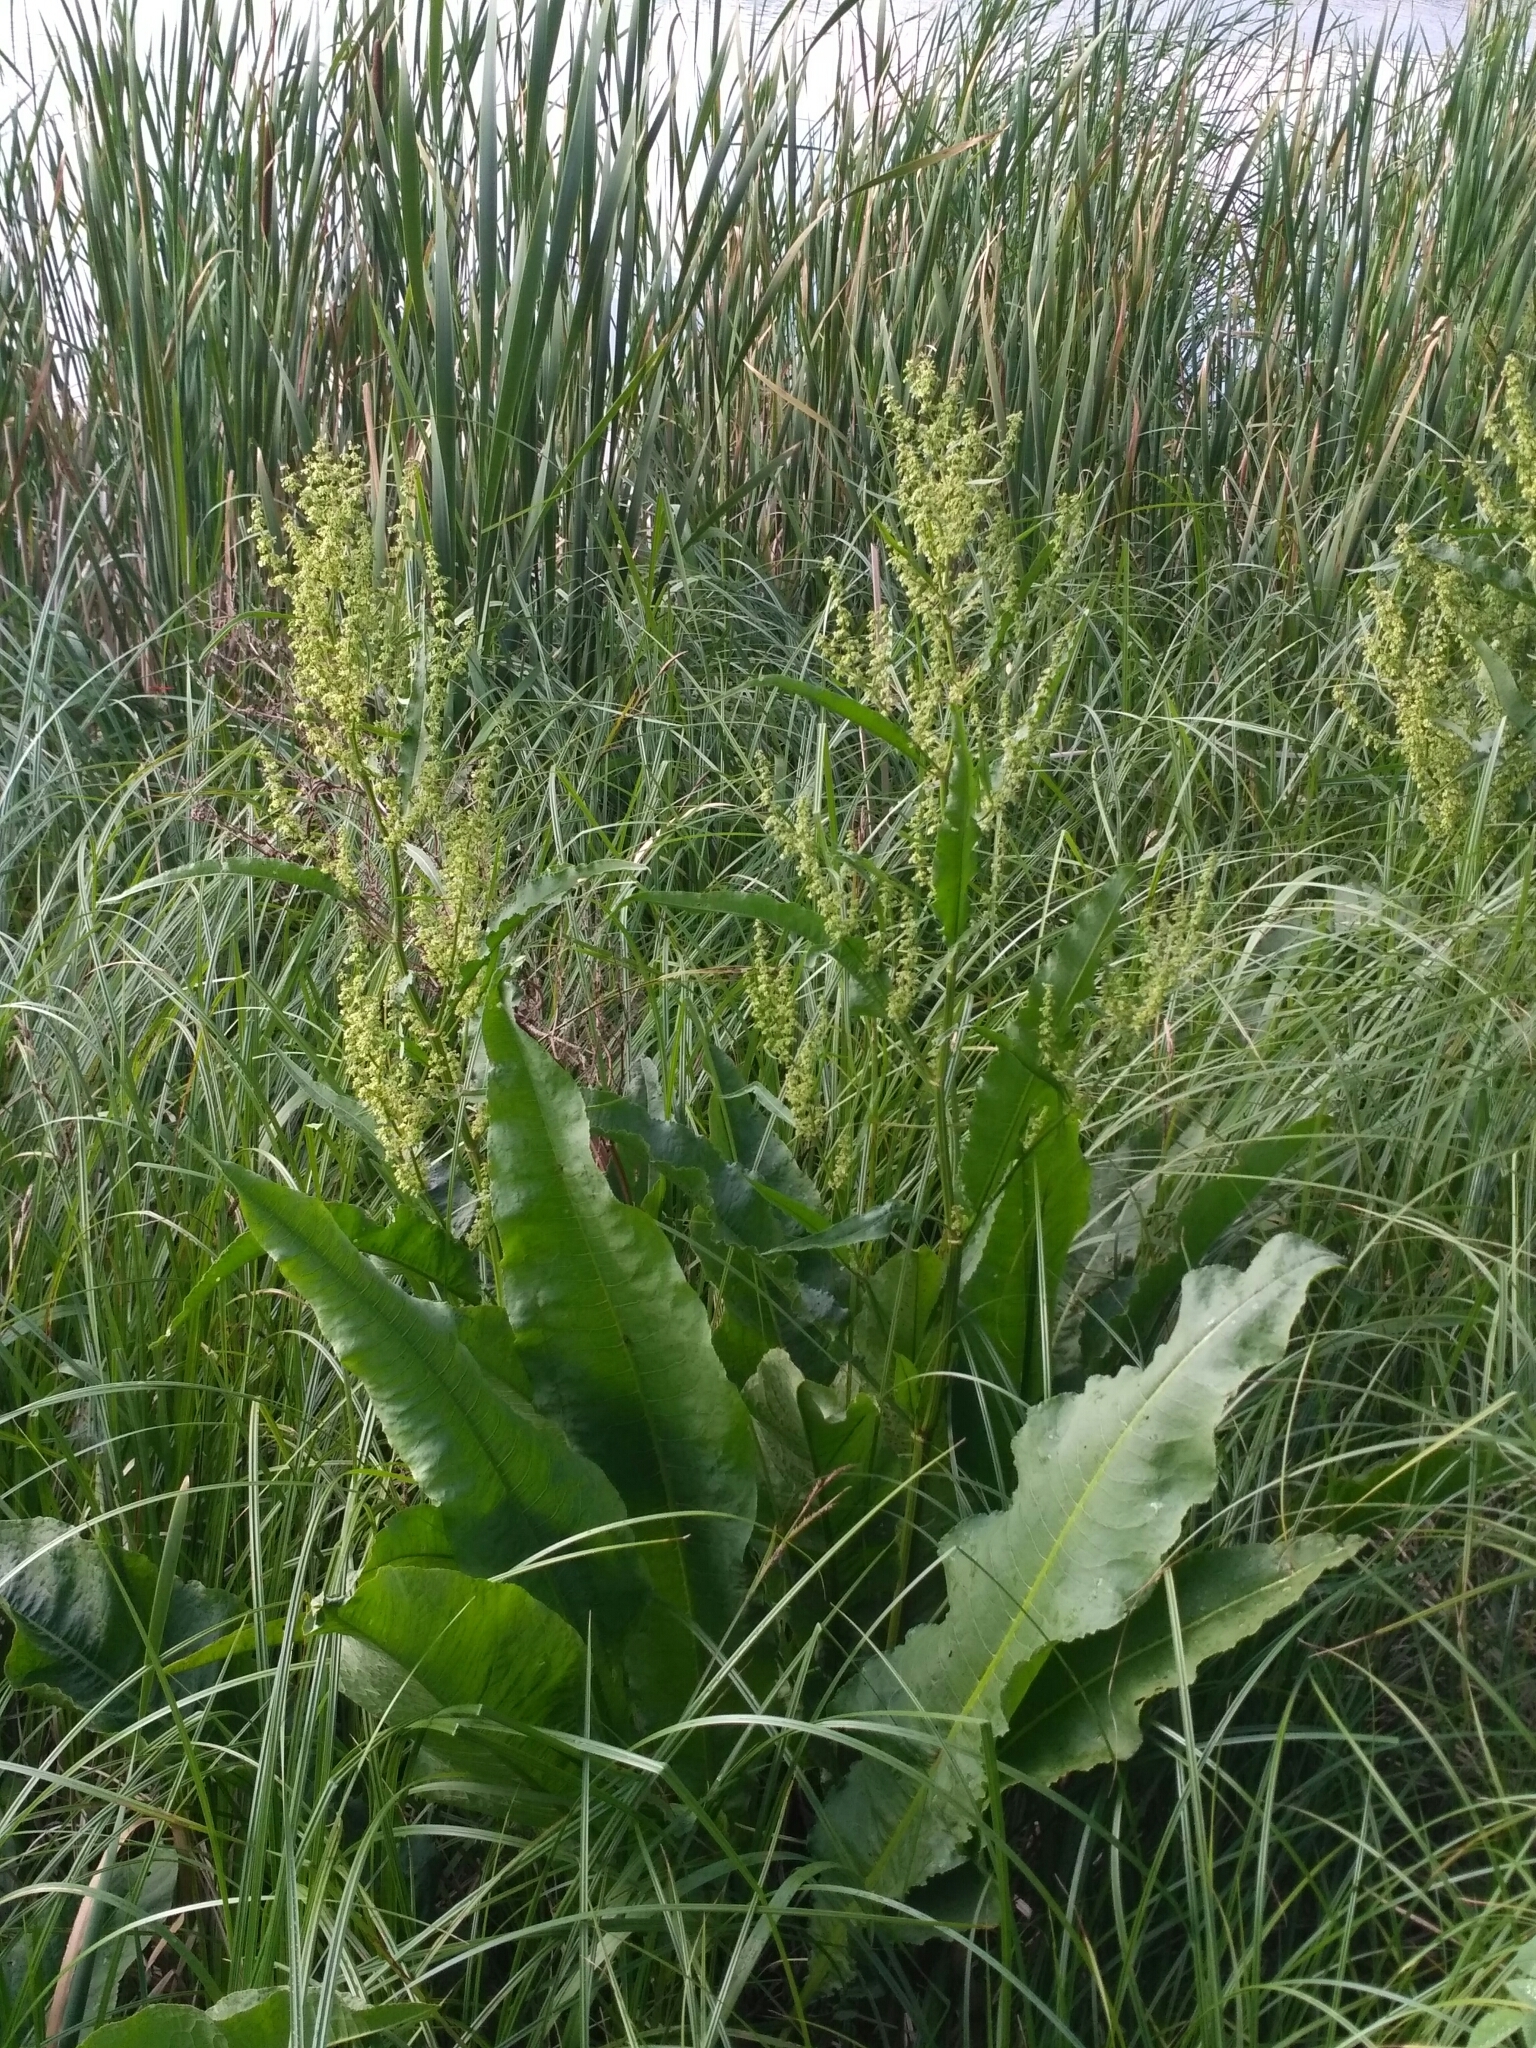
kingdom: Plantae
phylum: Tracheophyta
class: Magnoliopsida
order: Caryophyllales
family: Polygonaceae
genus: Rumex
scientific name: Rumex hydrolapathum
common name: Water dock
